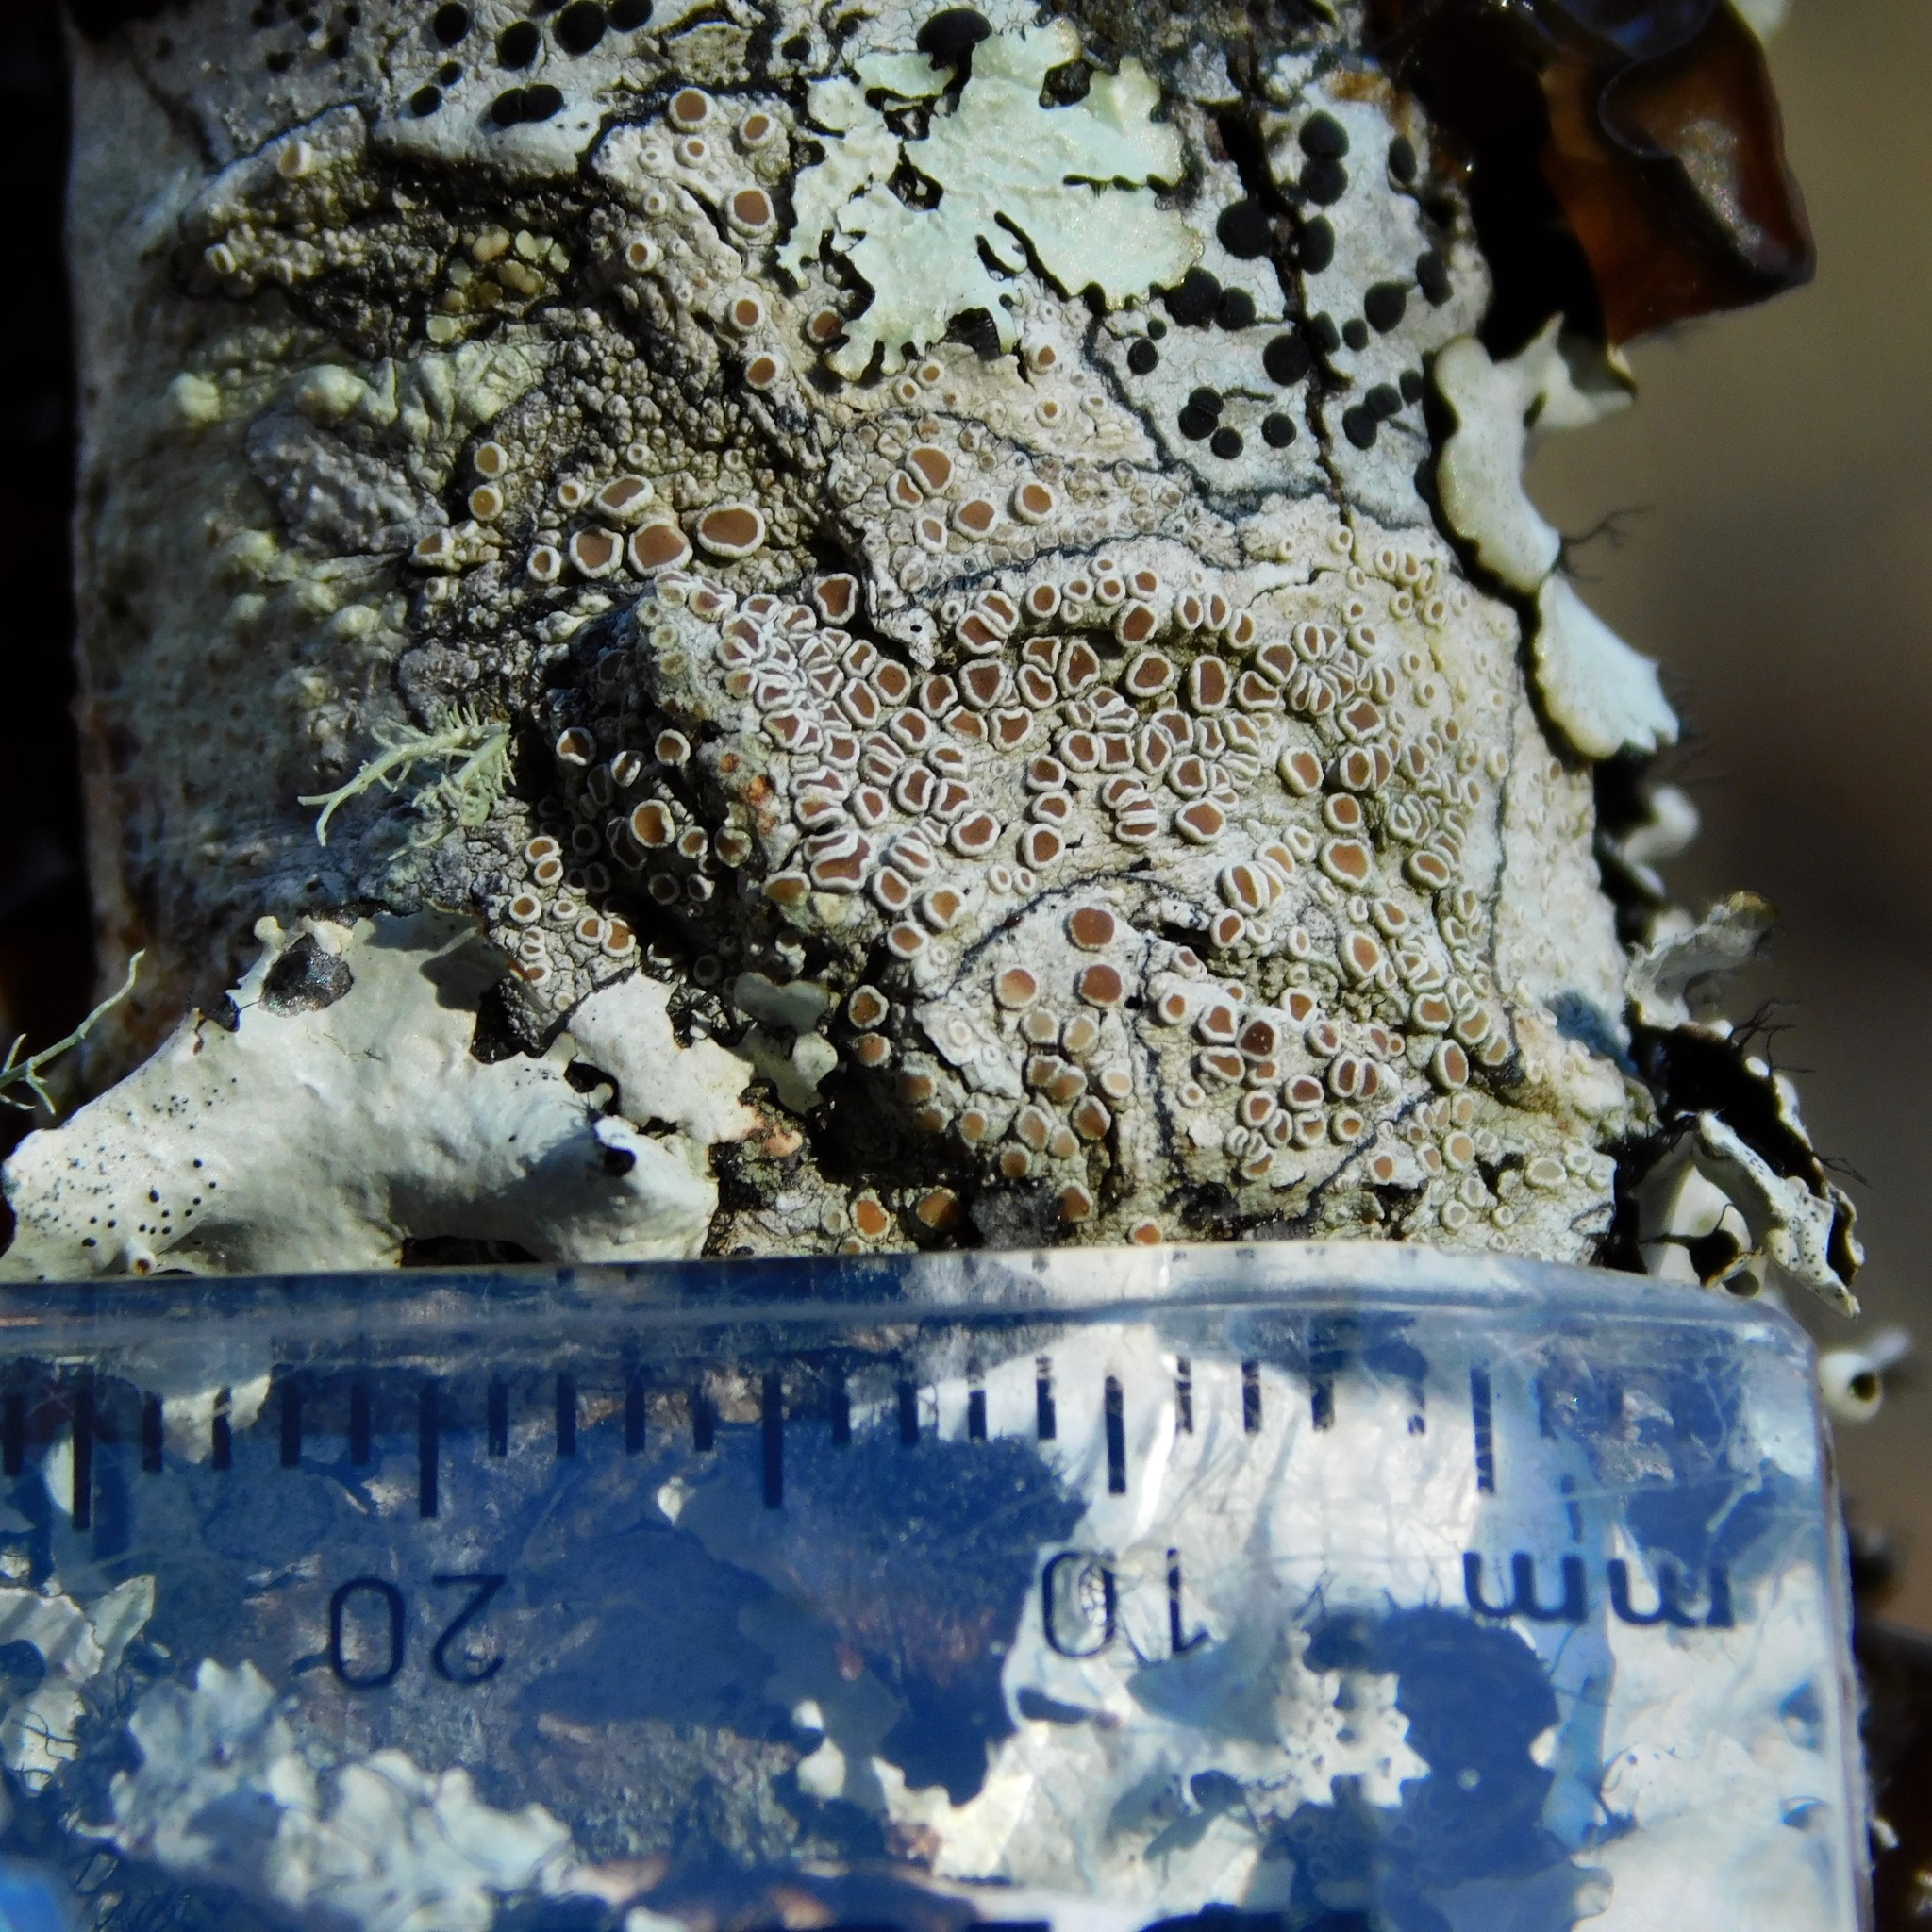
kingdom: Fungi
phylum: Ascomycota
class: Lecanoromycetes
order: Lecanorales
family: Lecanoraceae
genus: Lecanora
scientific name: Lecanora imshaugi
